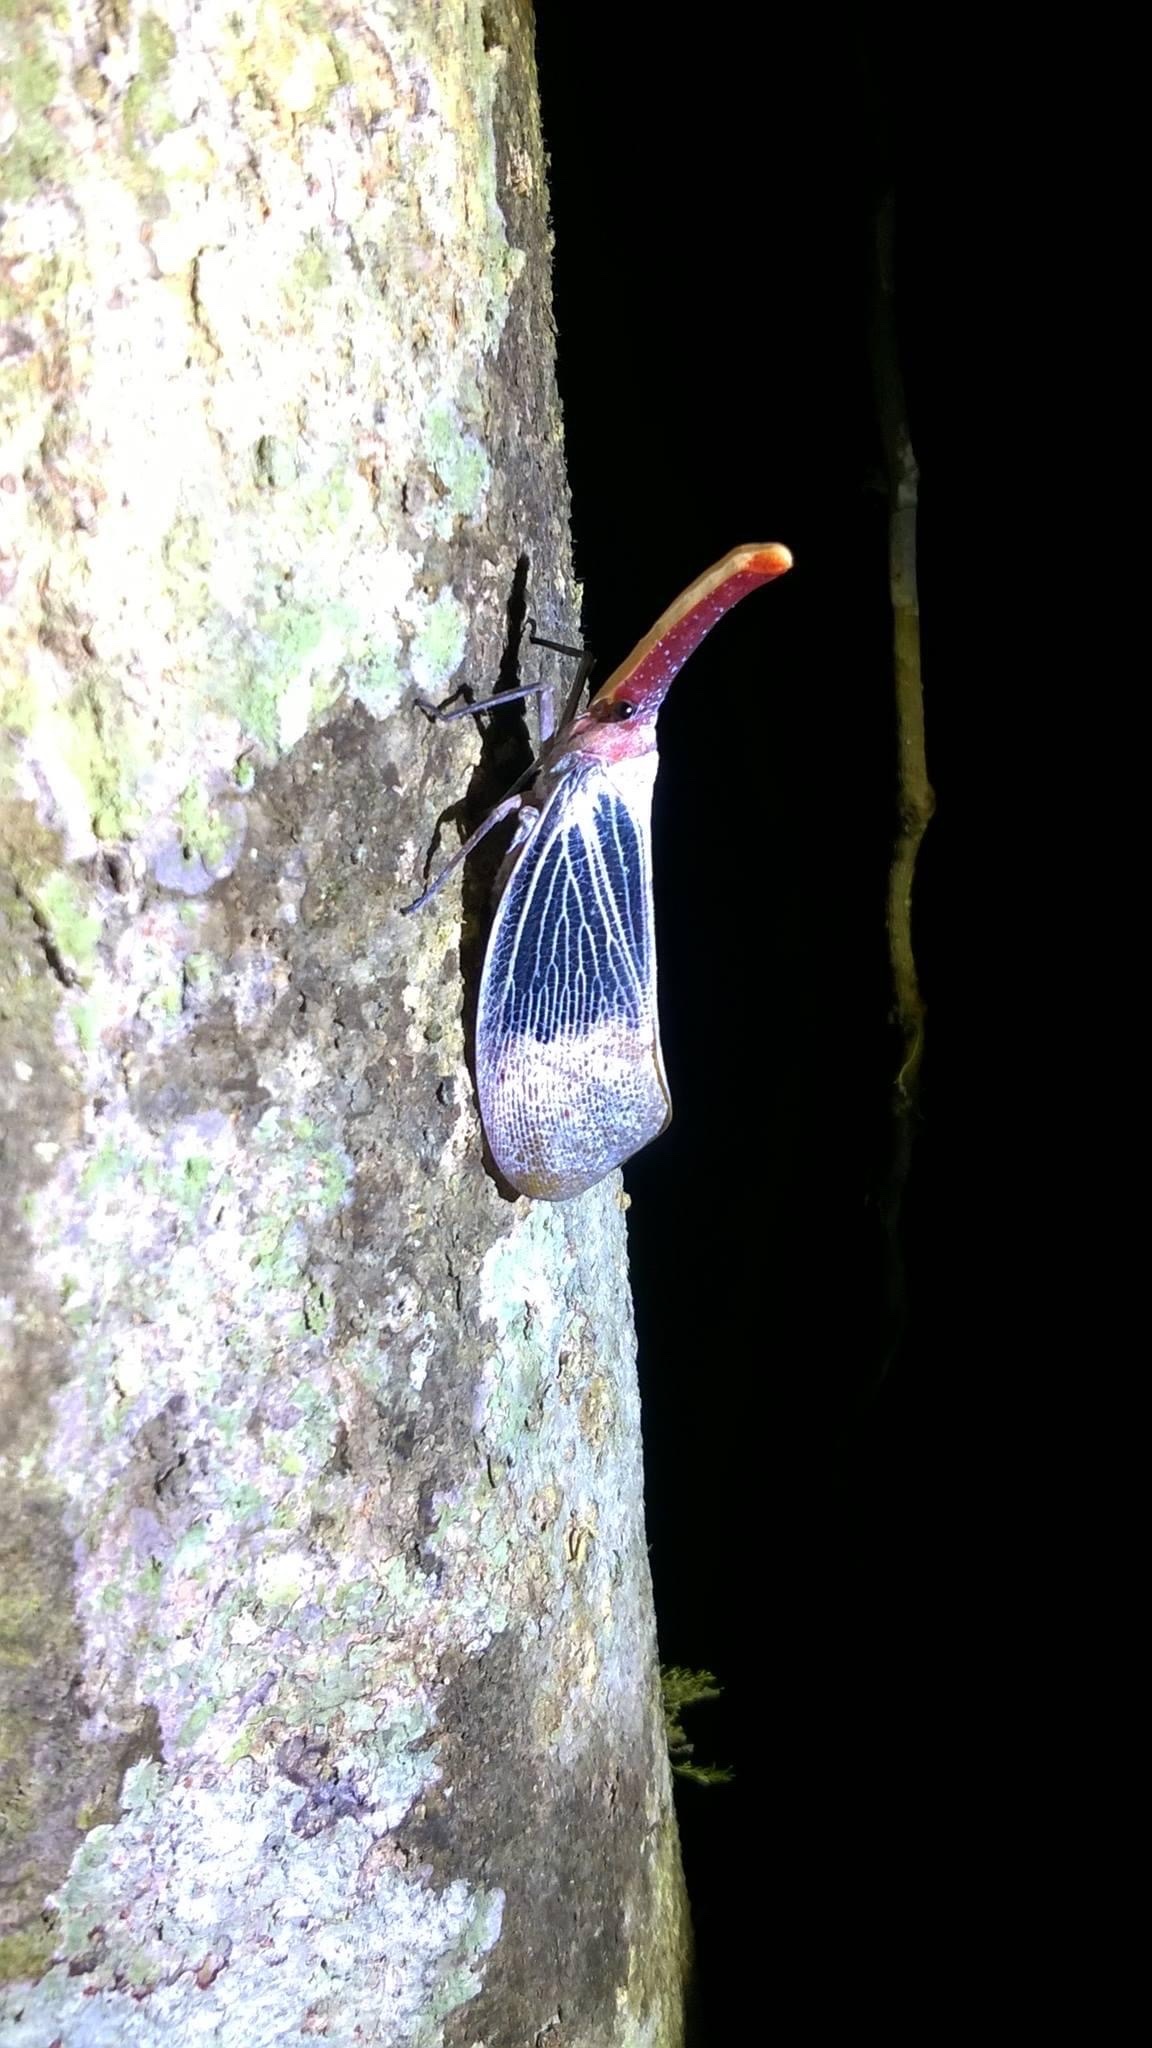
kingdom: Animalia
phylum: Arthropoda
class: Insecta
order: Hemiptera
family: Fulgoridae
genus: Pyrops
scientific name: Pyrops sultanus
